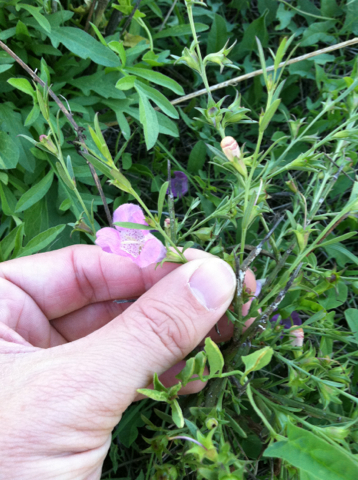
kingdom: Plantae
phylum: Tracheophyta
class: Magnoliopsida
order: Lamiales
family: Orobanchaceae
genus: Agalinis
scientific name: Agalinis heterophylla
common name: Prairie agalinis
